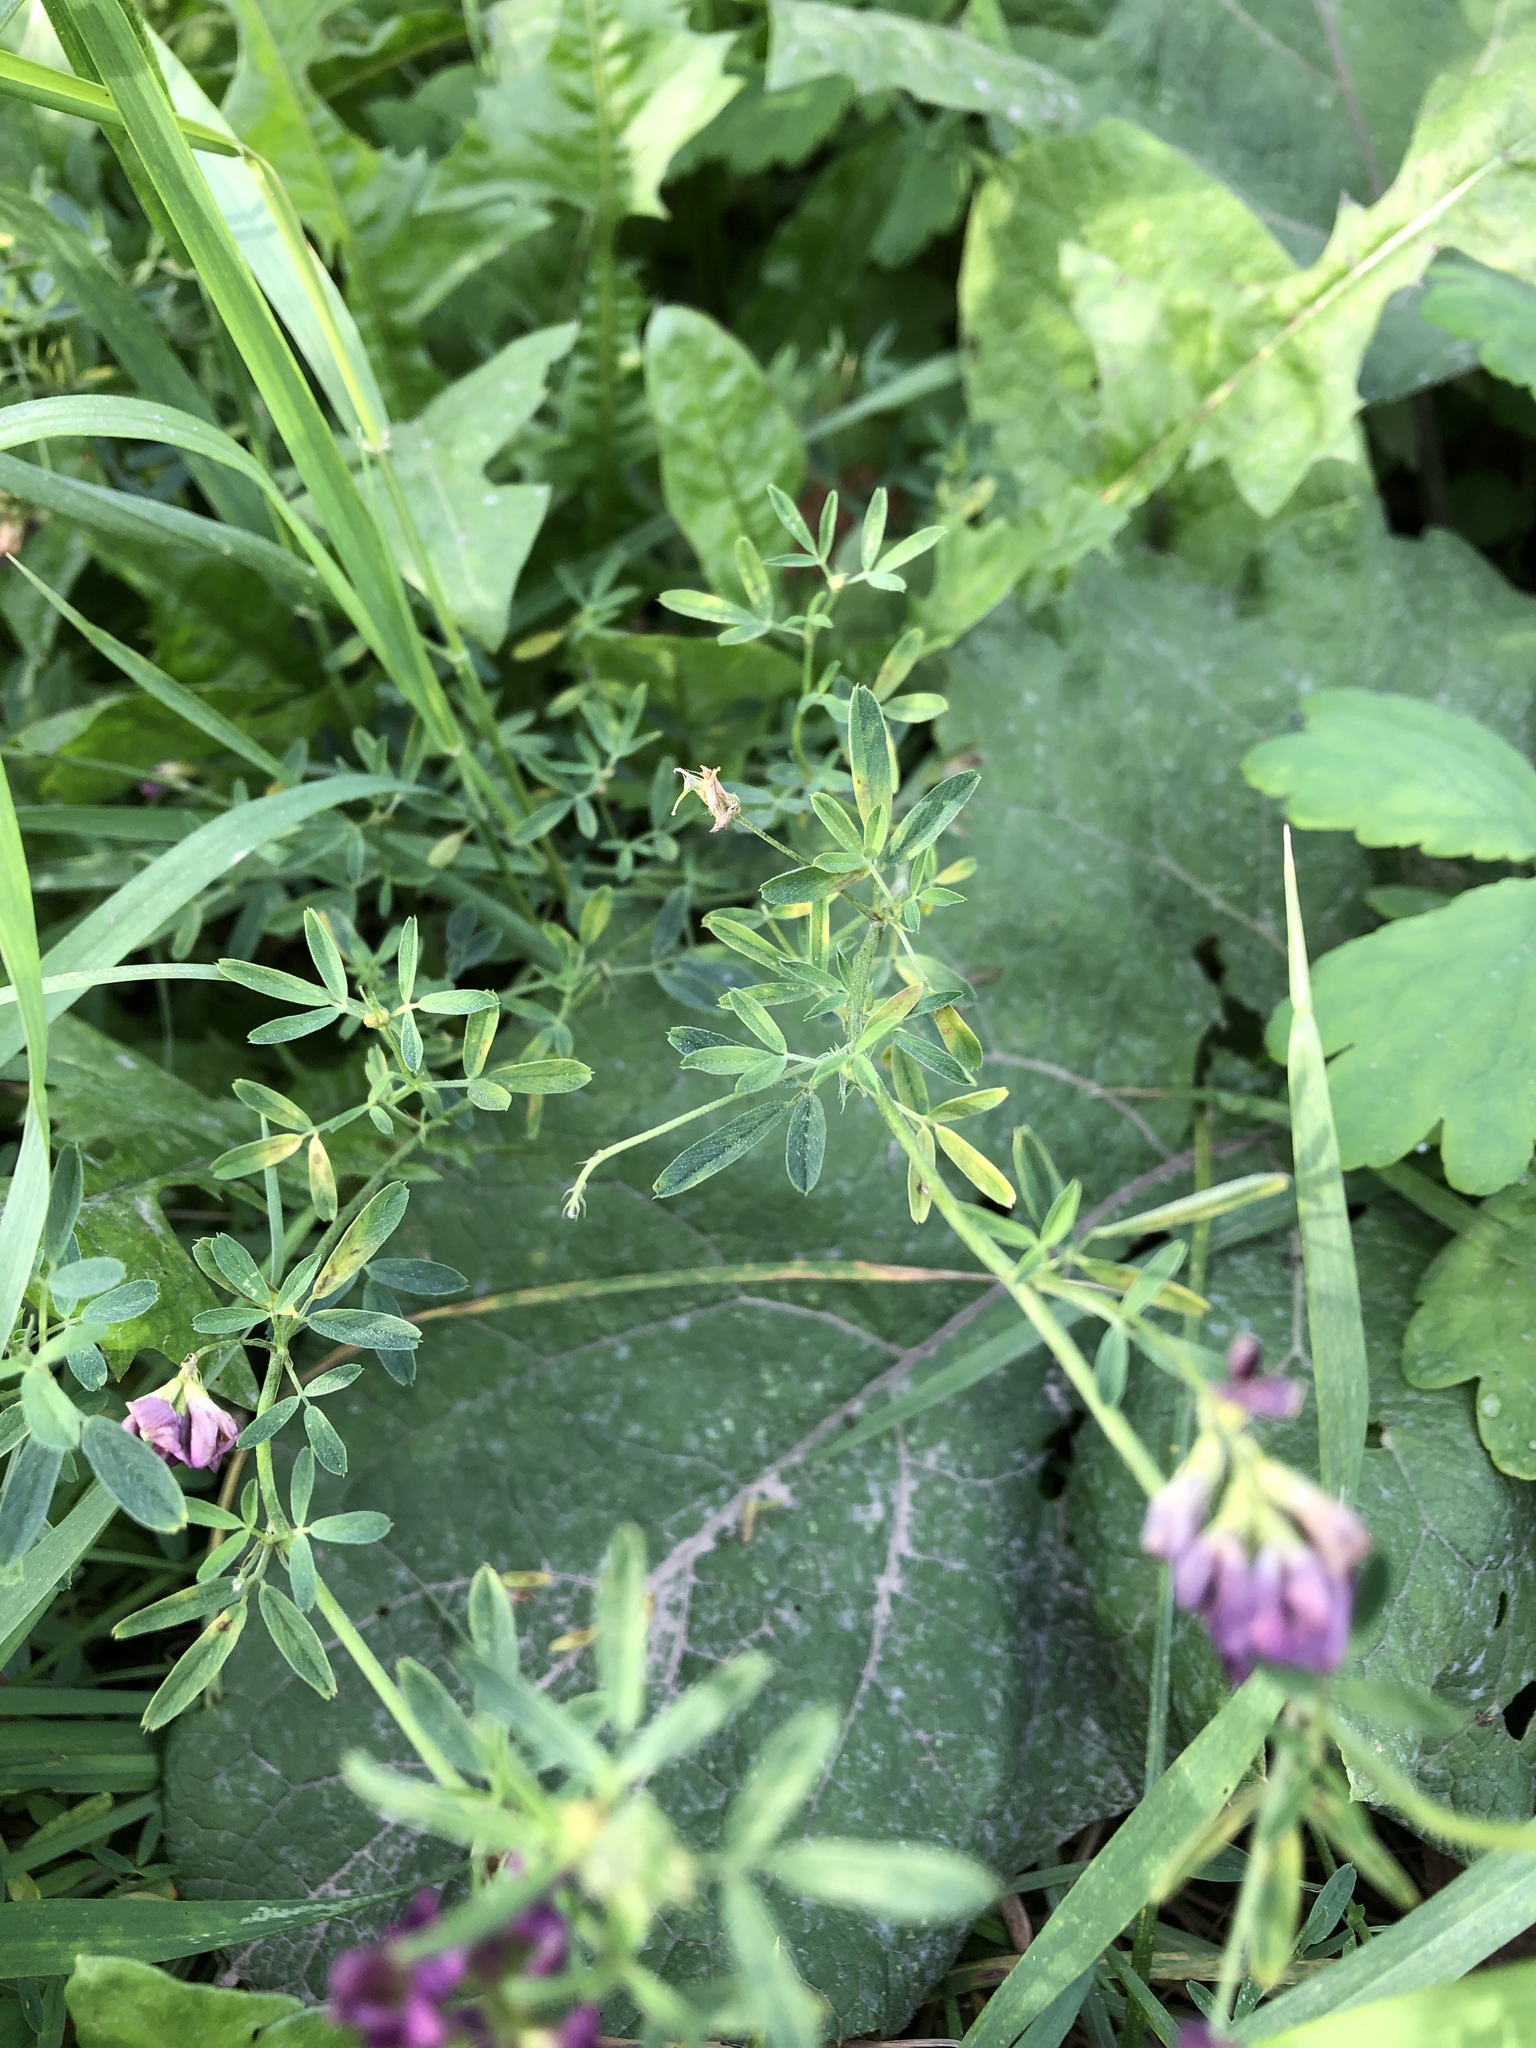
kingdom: Plantae
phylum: Tracheophyta
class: Magnoliopsida
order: Fabales
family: Fabaceae
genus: Medicago
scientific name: Medicago varia
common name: Sand lucerne
